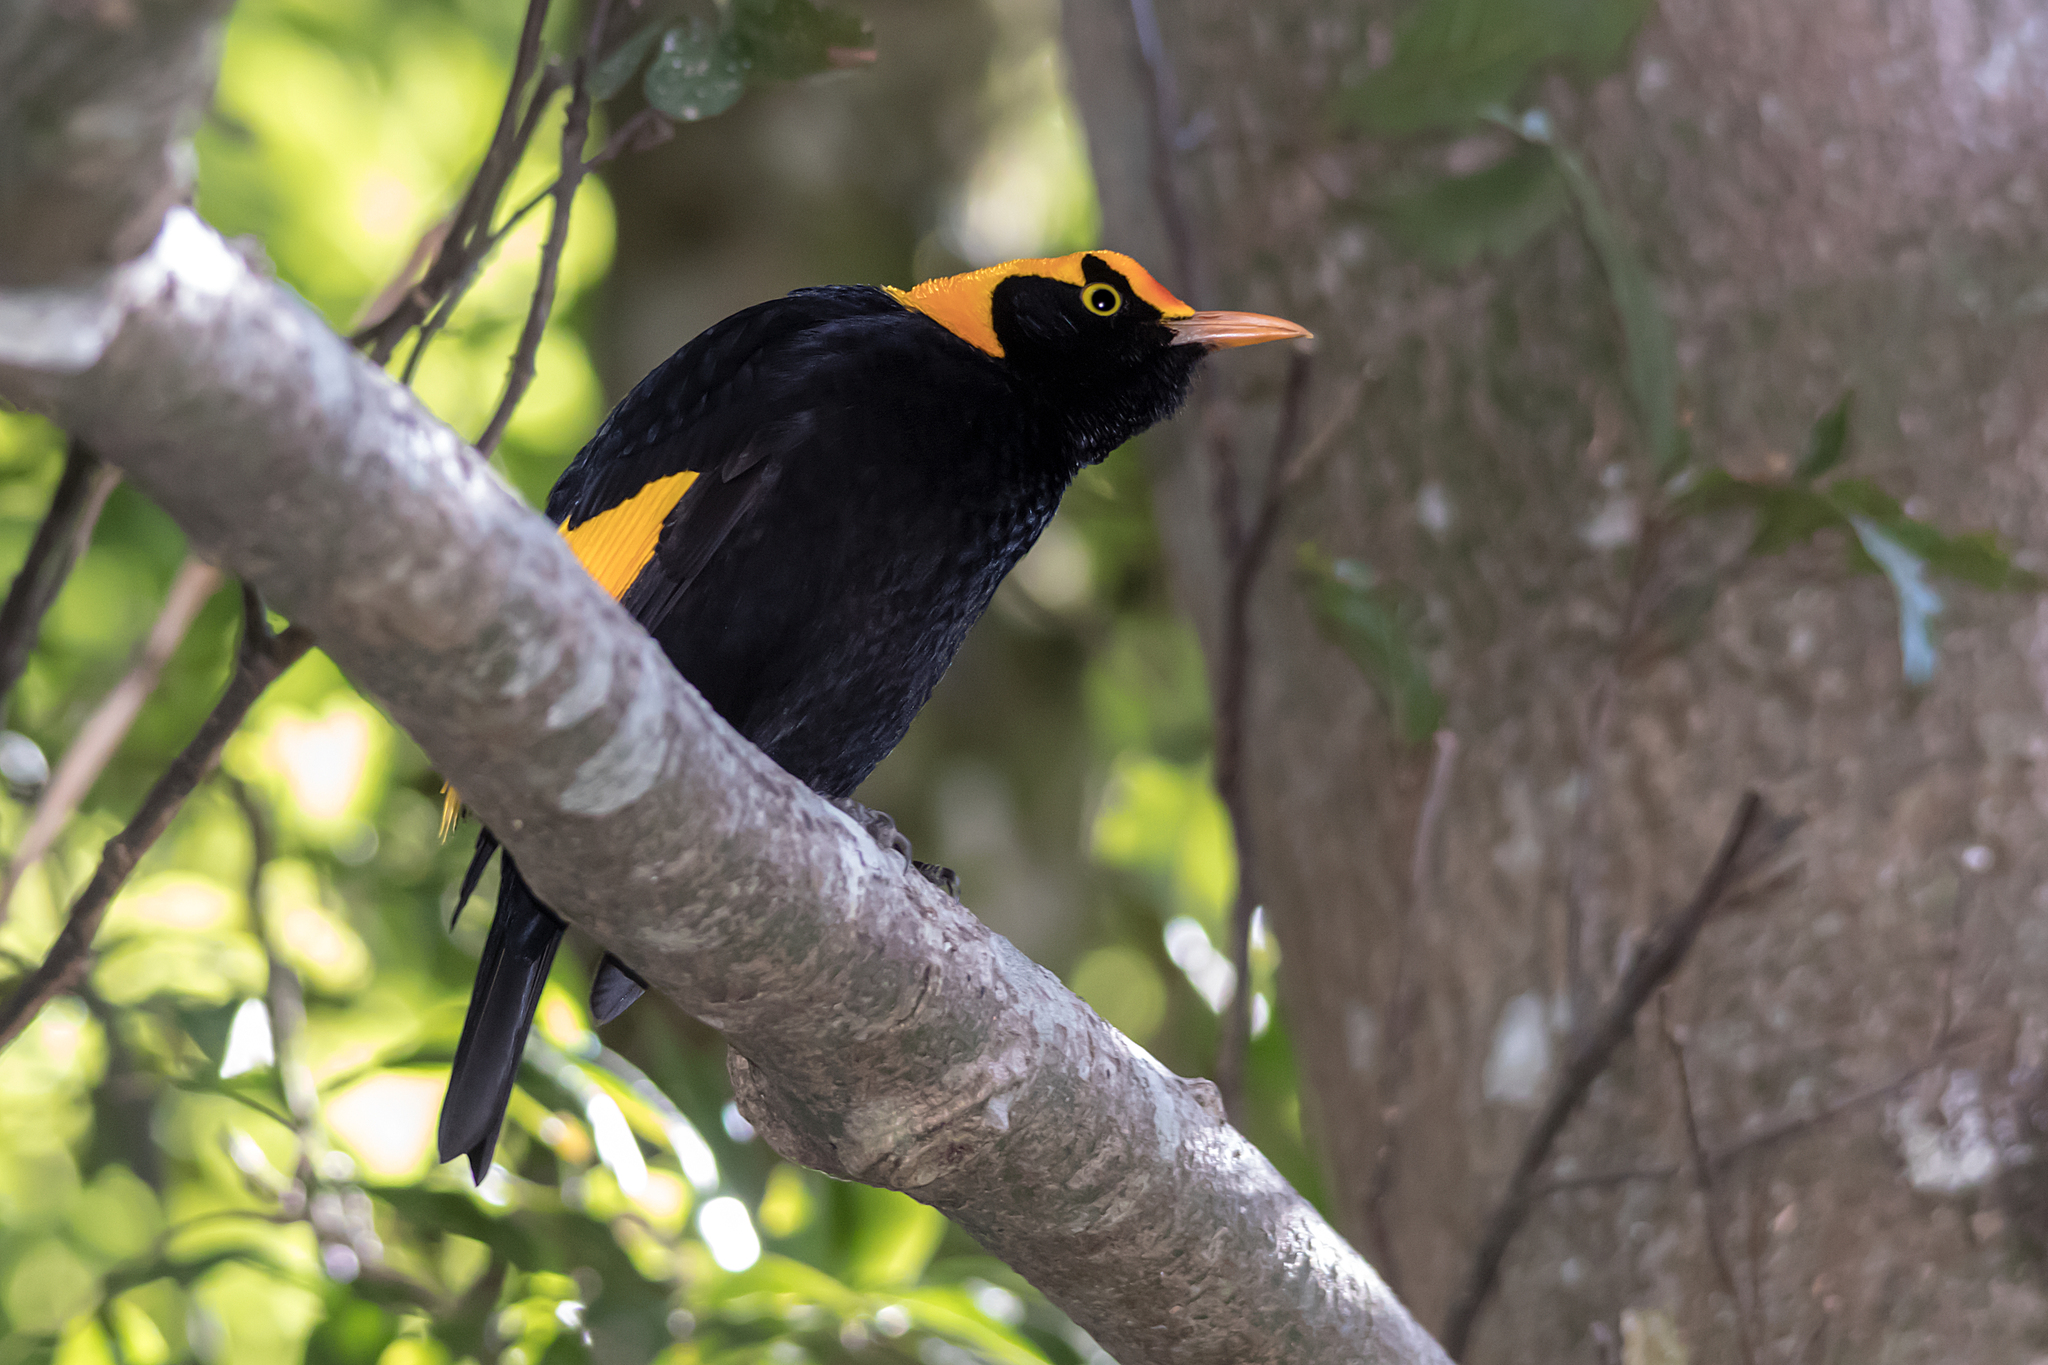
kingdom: Animalia
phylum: Chordata
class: Aves
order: Passeriformes
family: Ptilonorhynchidae
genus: Sericulus
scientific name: Sericulus chrysocephalus
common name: Regent bowerbird
